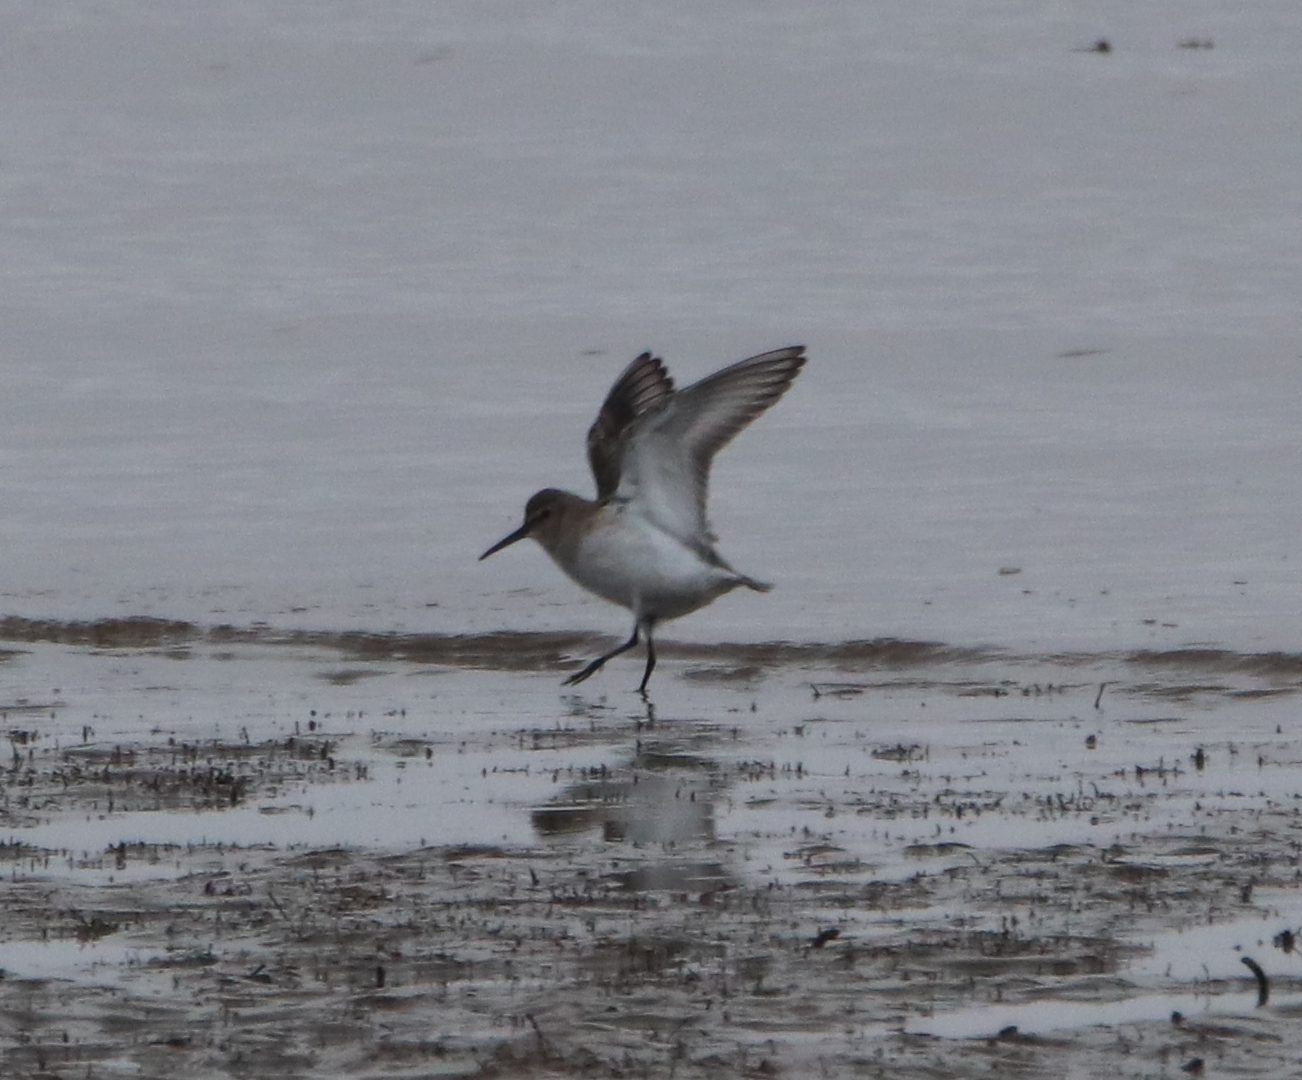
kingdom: Animalia
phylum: Chordata
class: Aves
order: Charadriiformes
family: Scolopacidae
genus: Calidris
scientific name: Calidris alpina
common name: Dunlin
